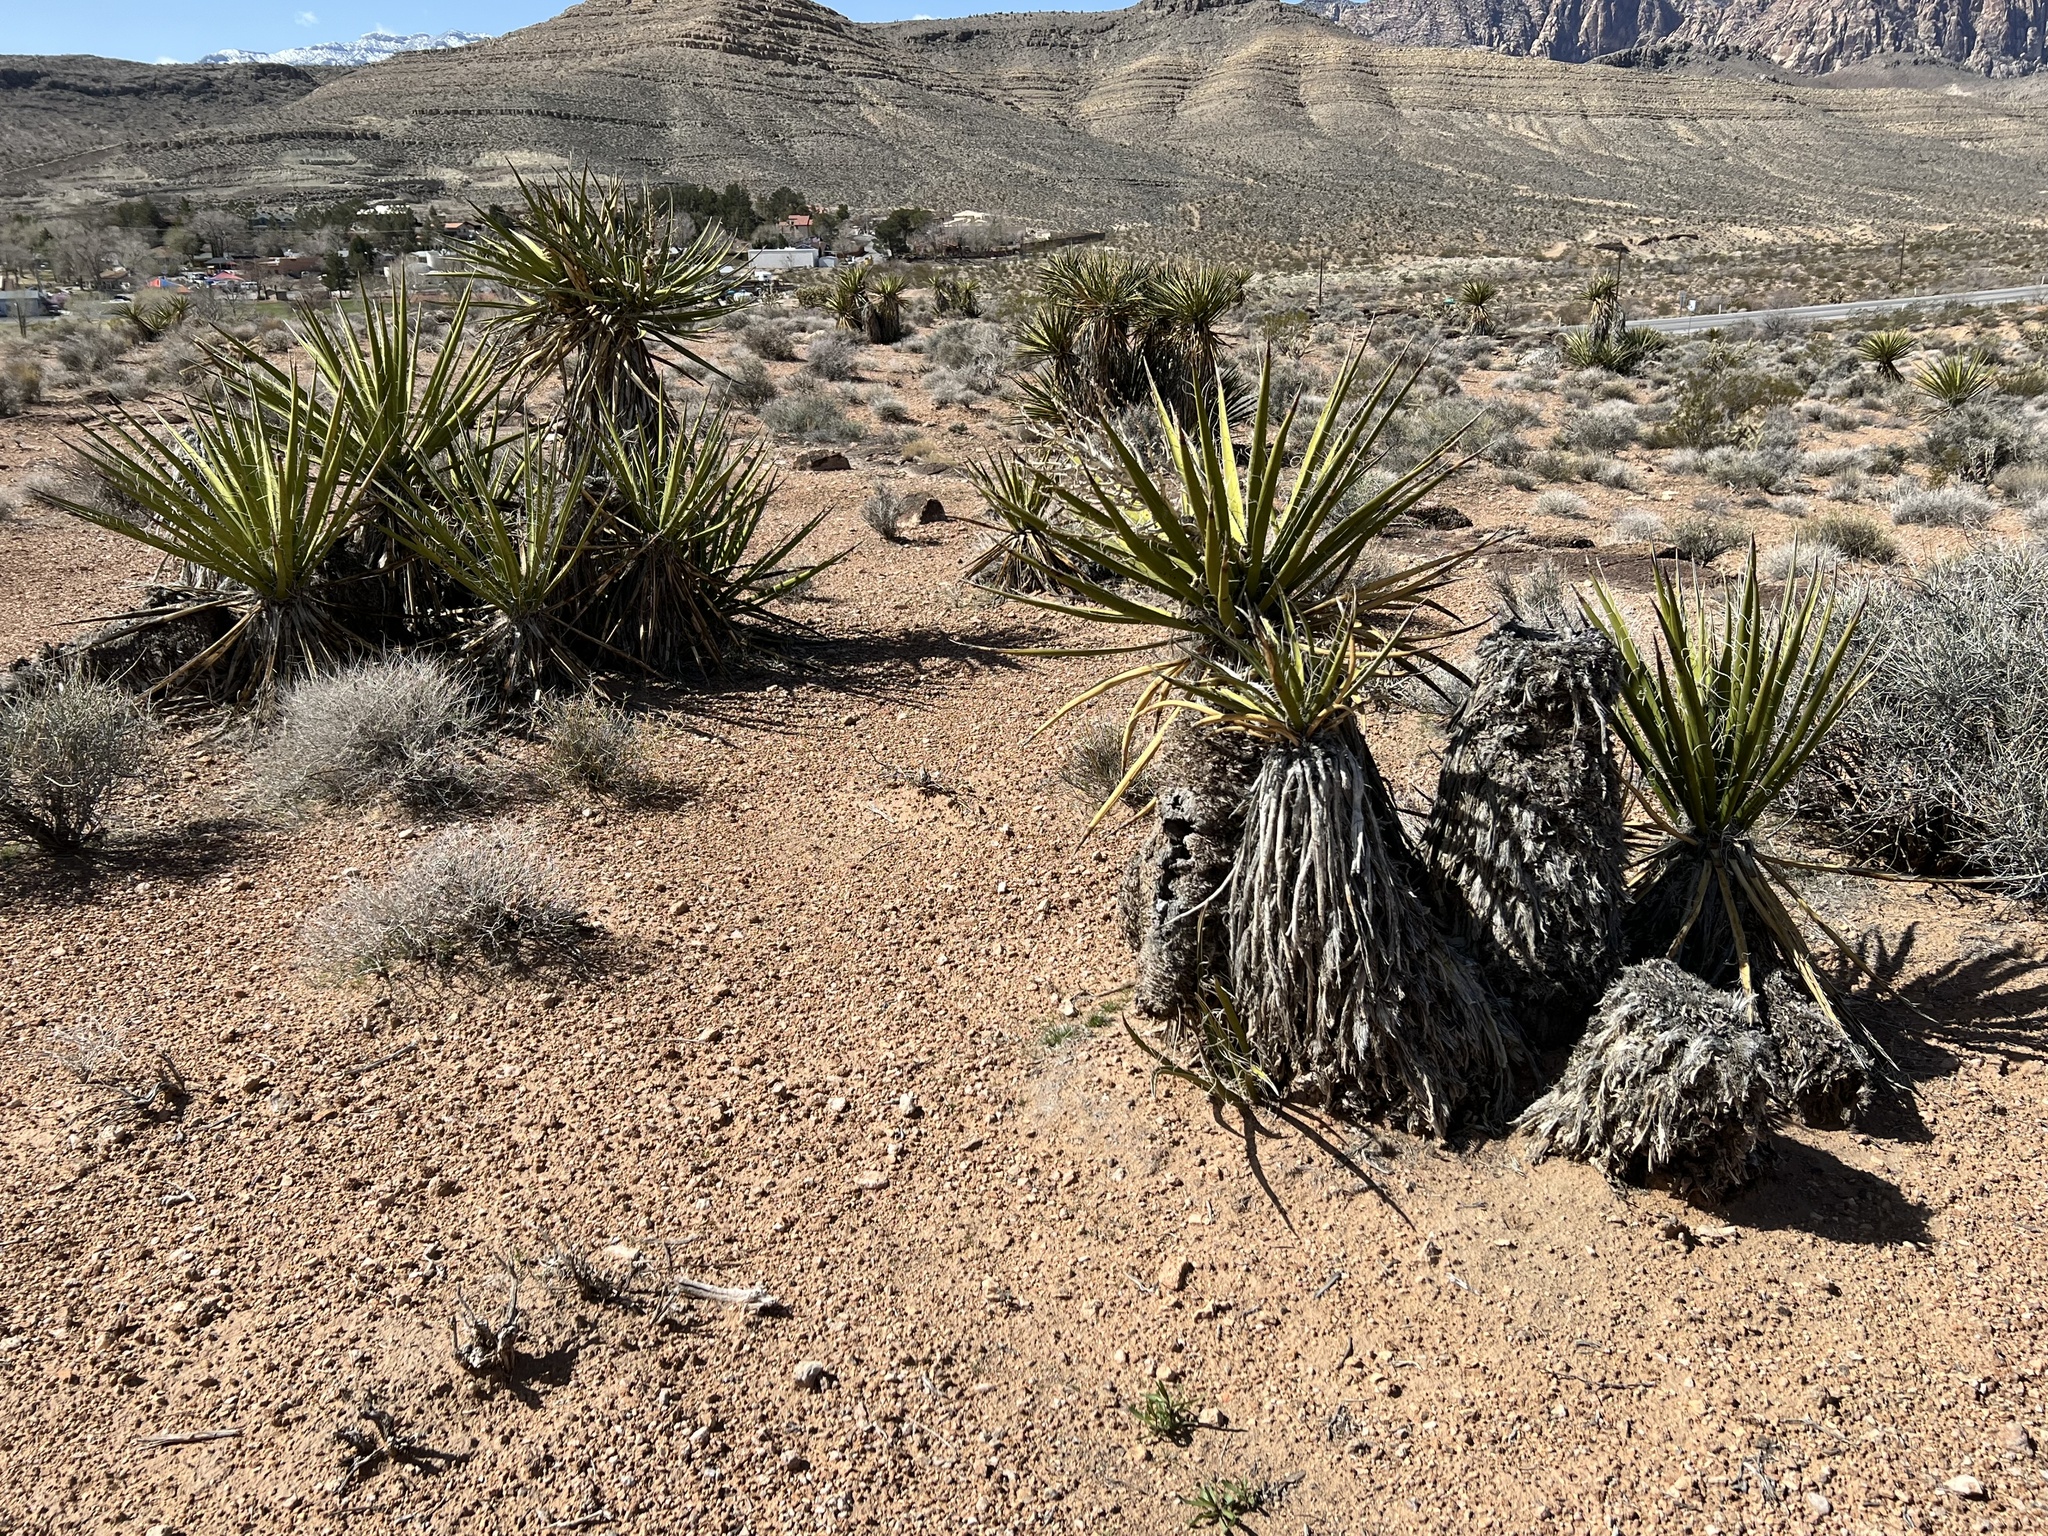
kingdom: Plantae
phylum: Tracheophyta
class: Liliopsida
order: Asparagales
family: Asparagaceae
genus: Yucca
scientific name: Yucca schidigera
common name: Mojave yucca
